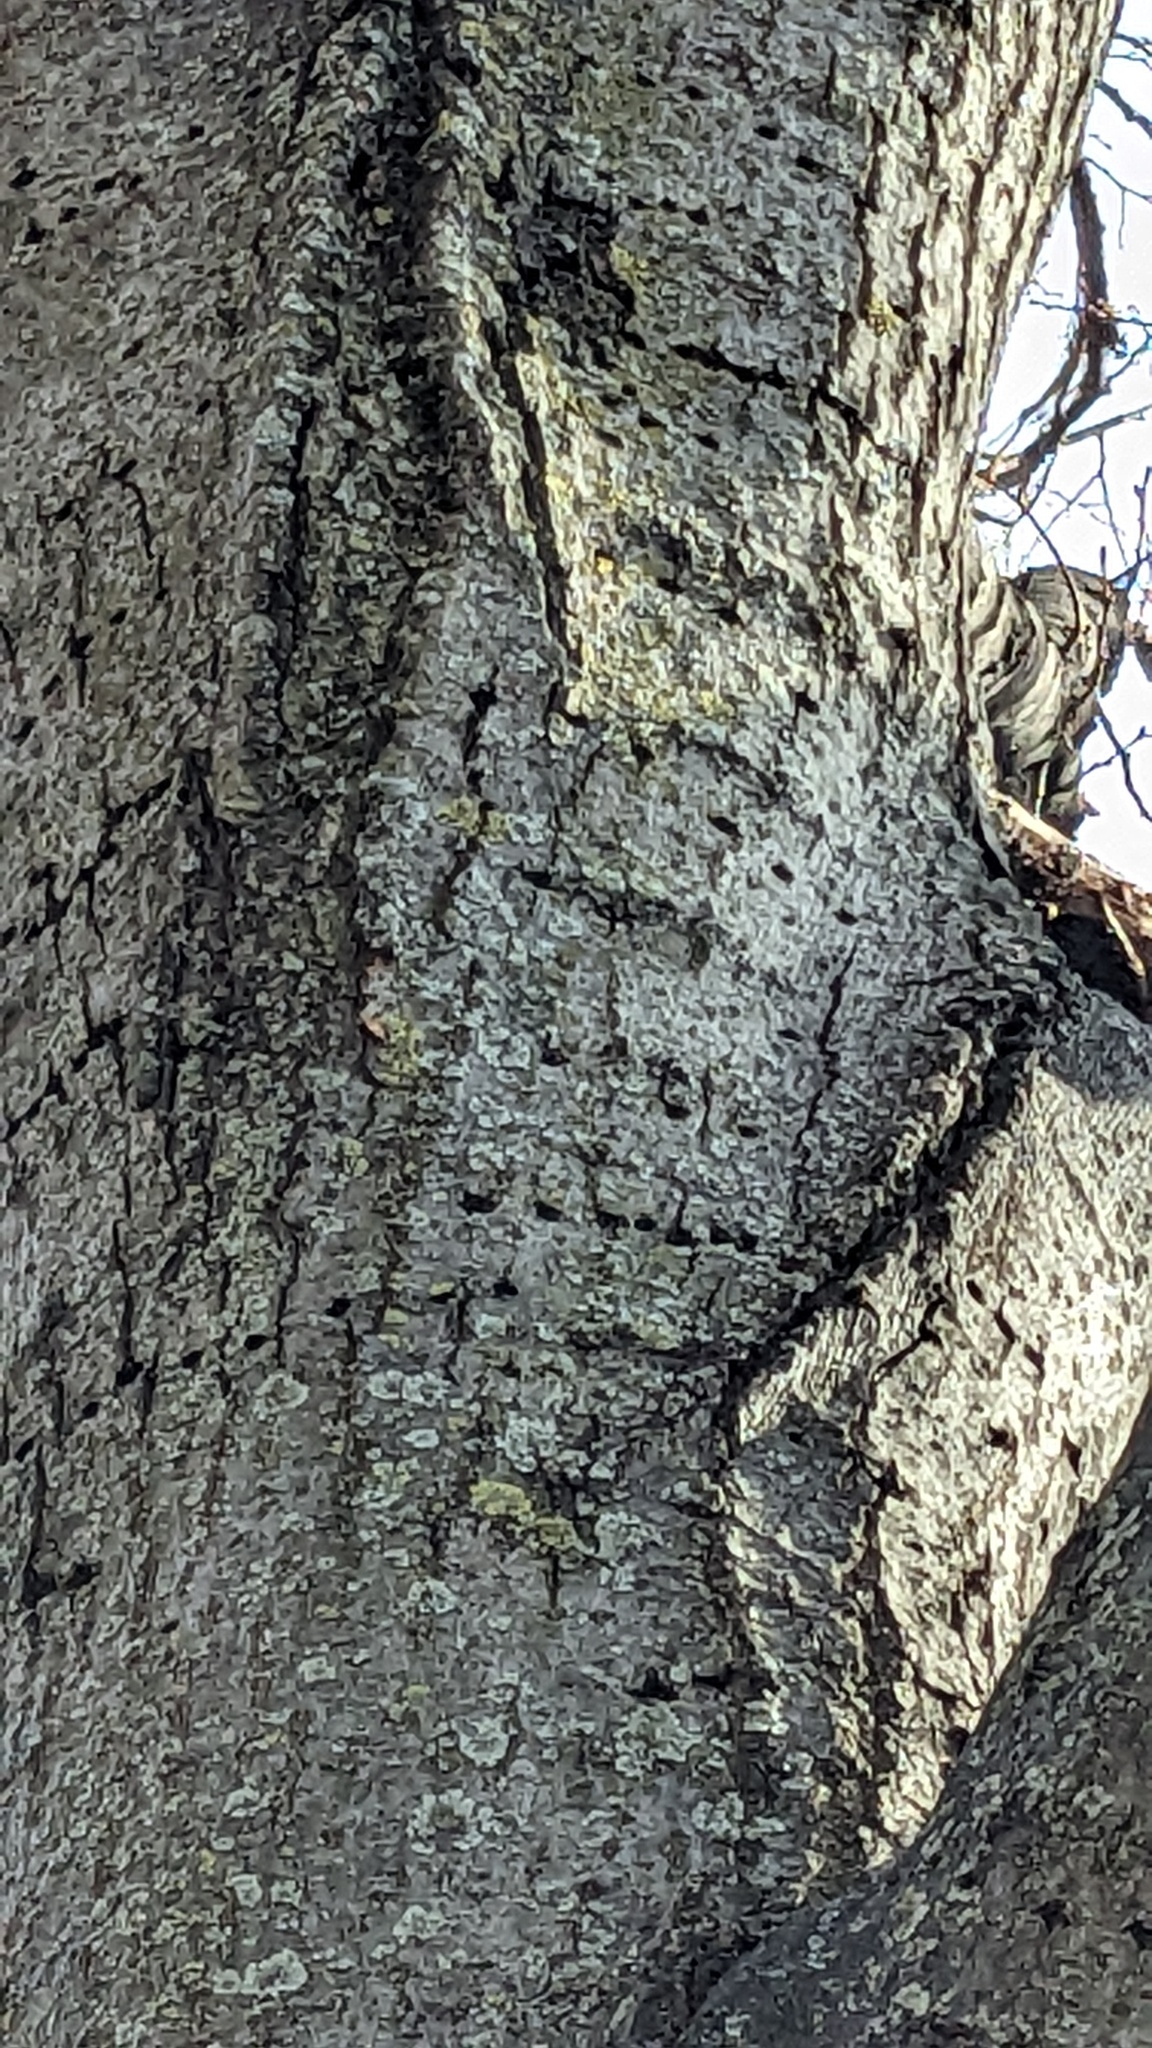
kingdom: Animalia
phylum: Chordata
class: Aves
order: Piciformes
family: Picidae
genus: Sphyrapicus
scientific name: Sphyrapicus varius
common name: Yellow-bellied sapsucker
